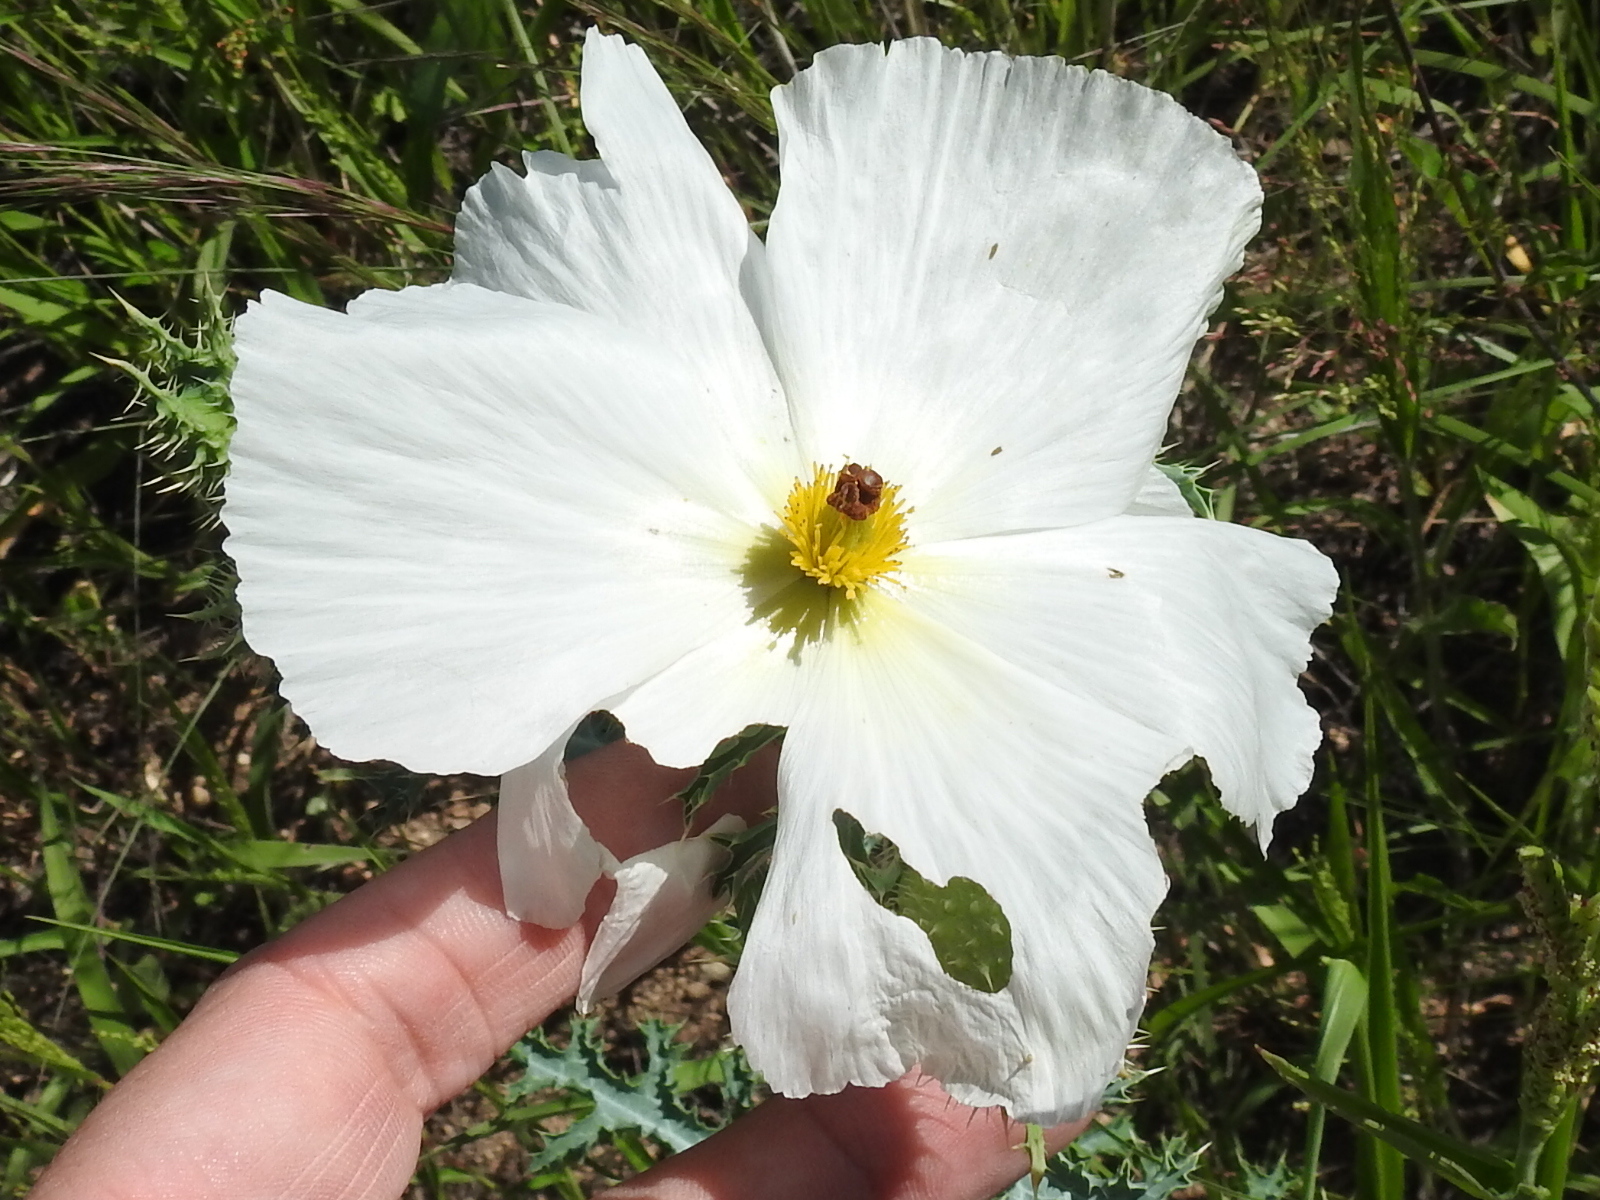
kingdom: Plantae
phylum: Tracheophyta
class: Magnoliopsida
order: Ranunculales
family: Papaveraceae
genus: Argemone
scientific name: Argemone pleiacantha
